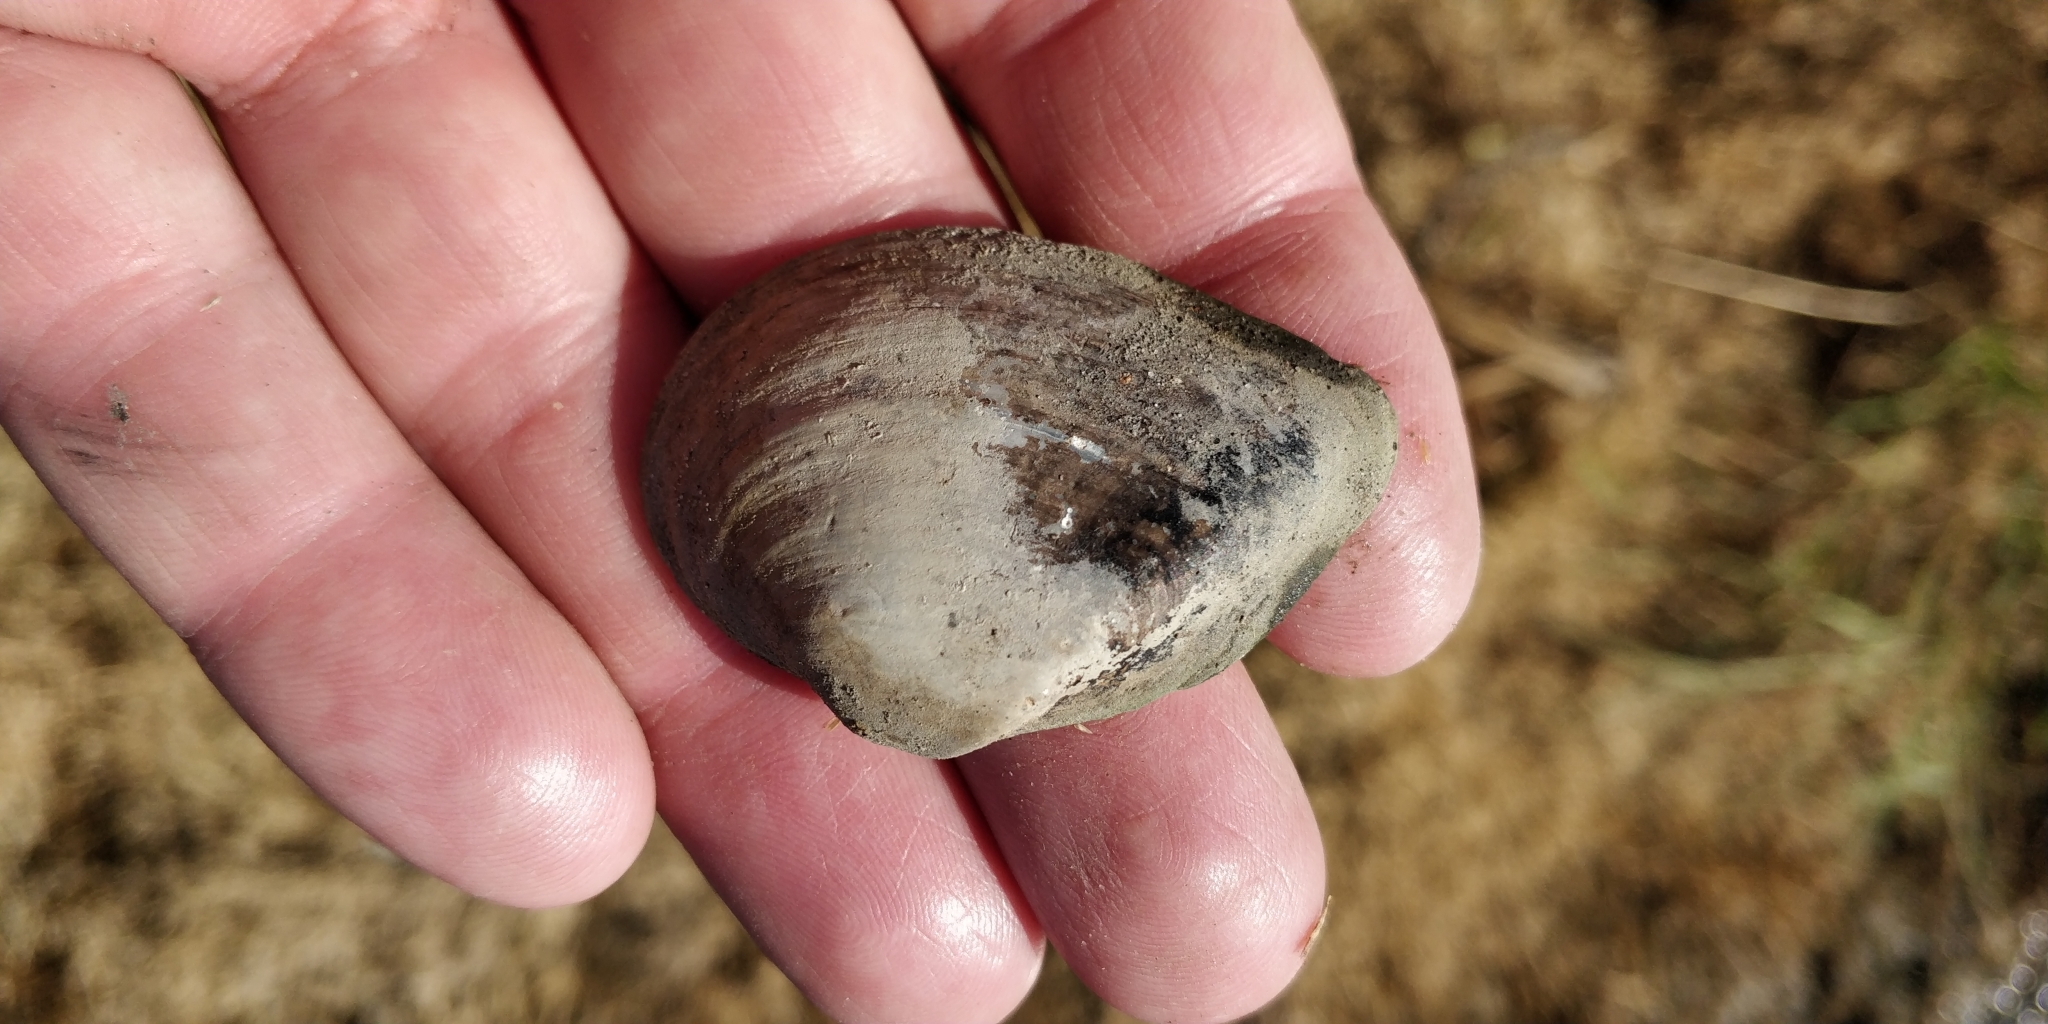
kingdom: Animalia
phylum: Mollusca
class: Bivalvia
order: Unionida
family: Unionidae
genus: Truncilla
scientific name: Truncilla truncata
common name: Deertoe
